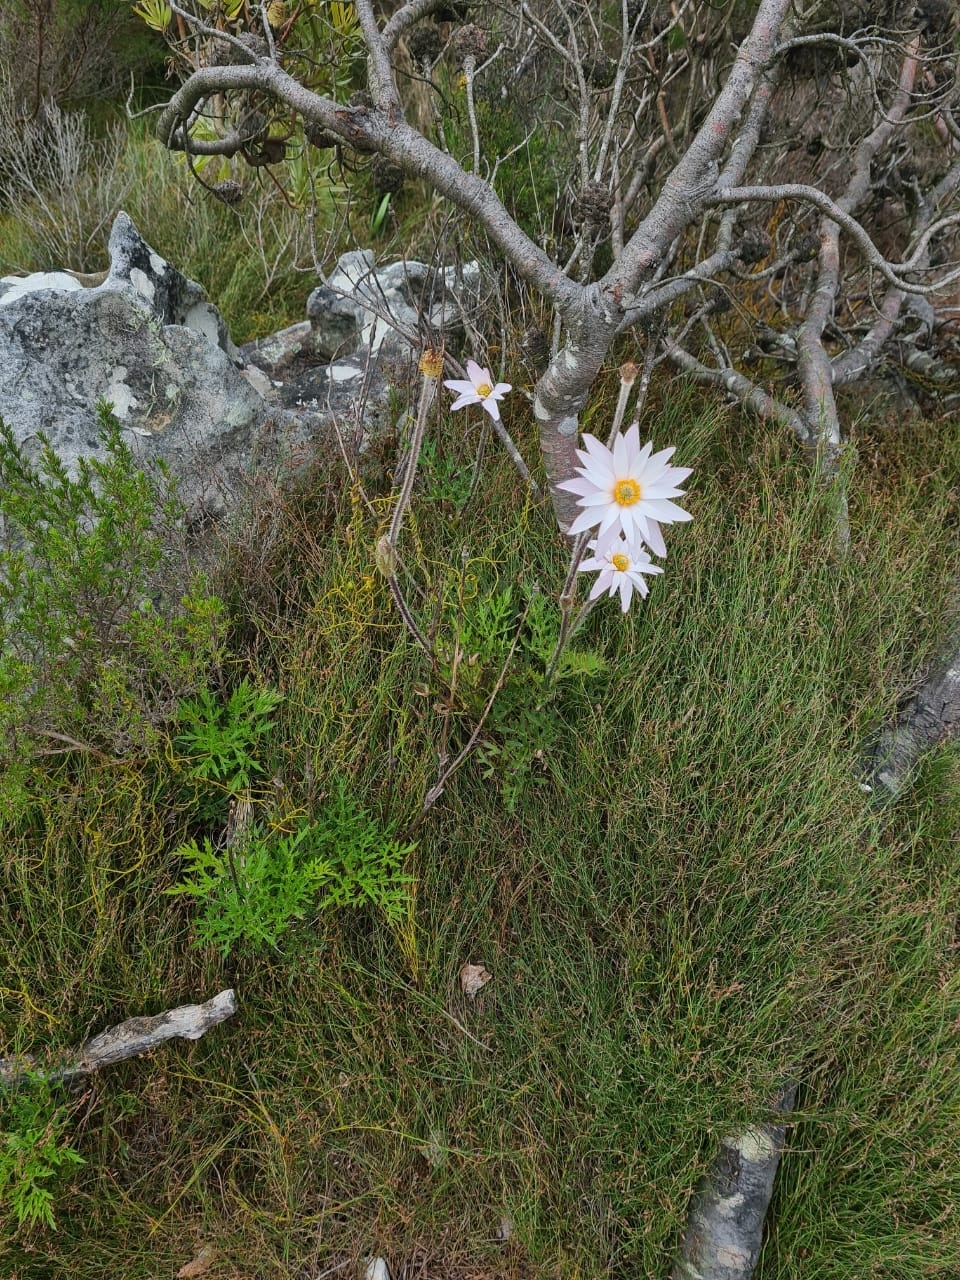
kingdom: Plantae
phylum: Tracheophyta
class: Magnoliopsida
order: Ranunculales
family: Ranunculaceae
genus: Knowltonia
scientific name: Knowltonia tenuifolia
